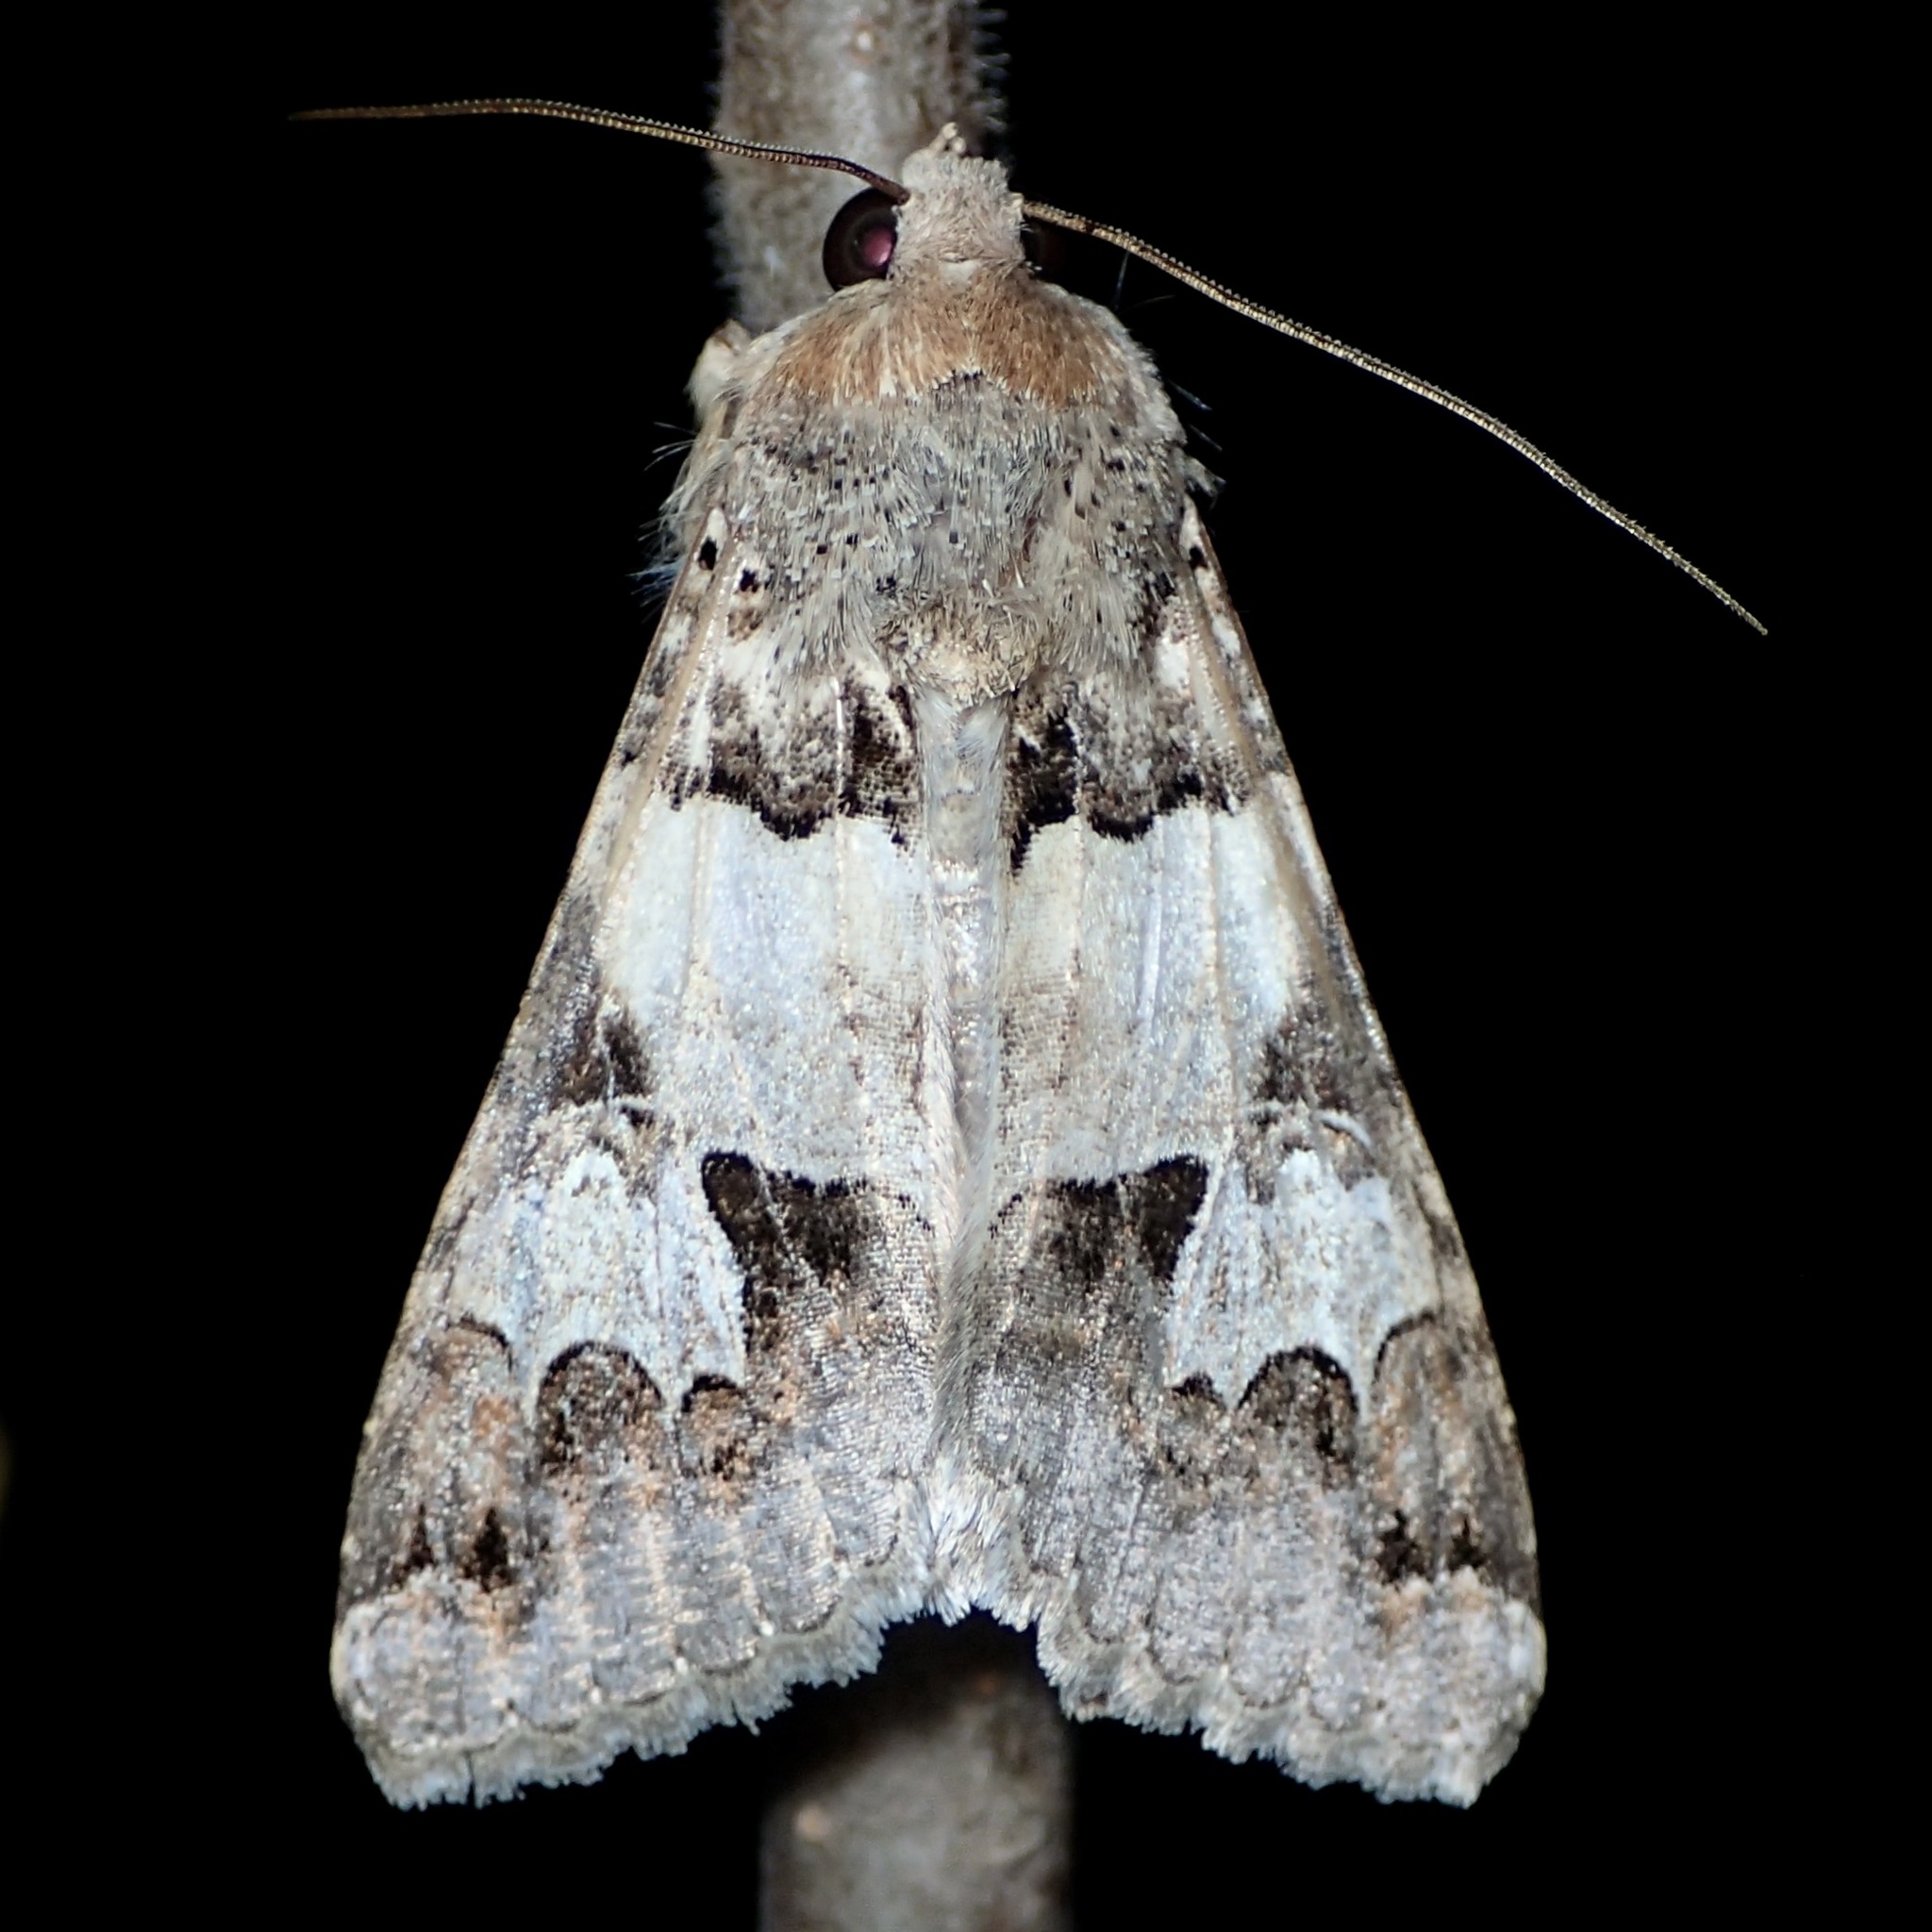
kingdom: Animalia
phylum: Arthropoda
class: Insecta
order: Lepidoptera
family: Erebidae
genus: Melipotis
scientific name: Melipotis novanda
